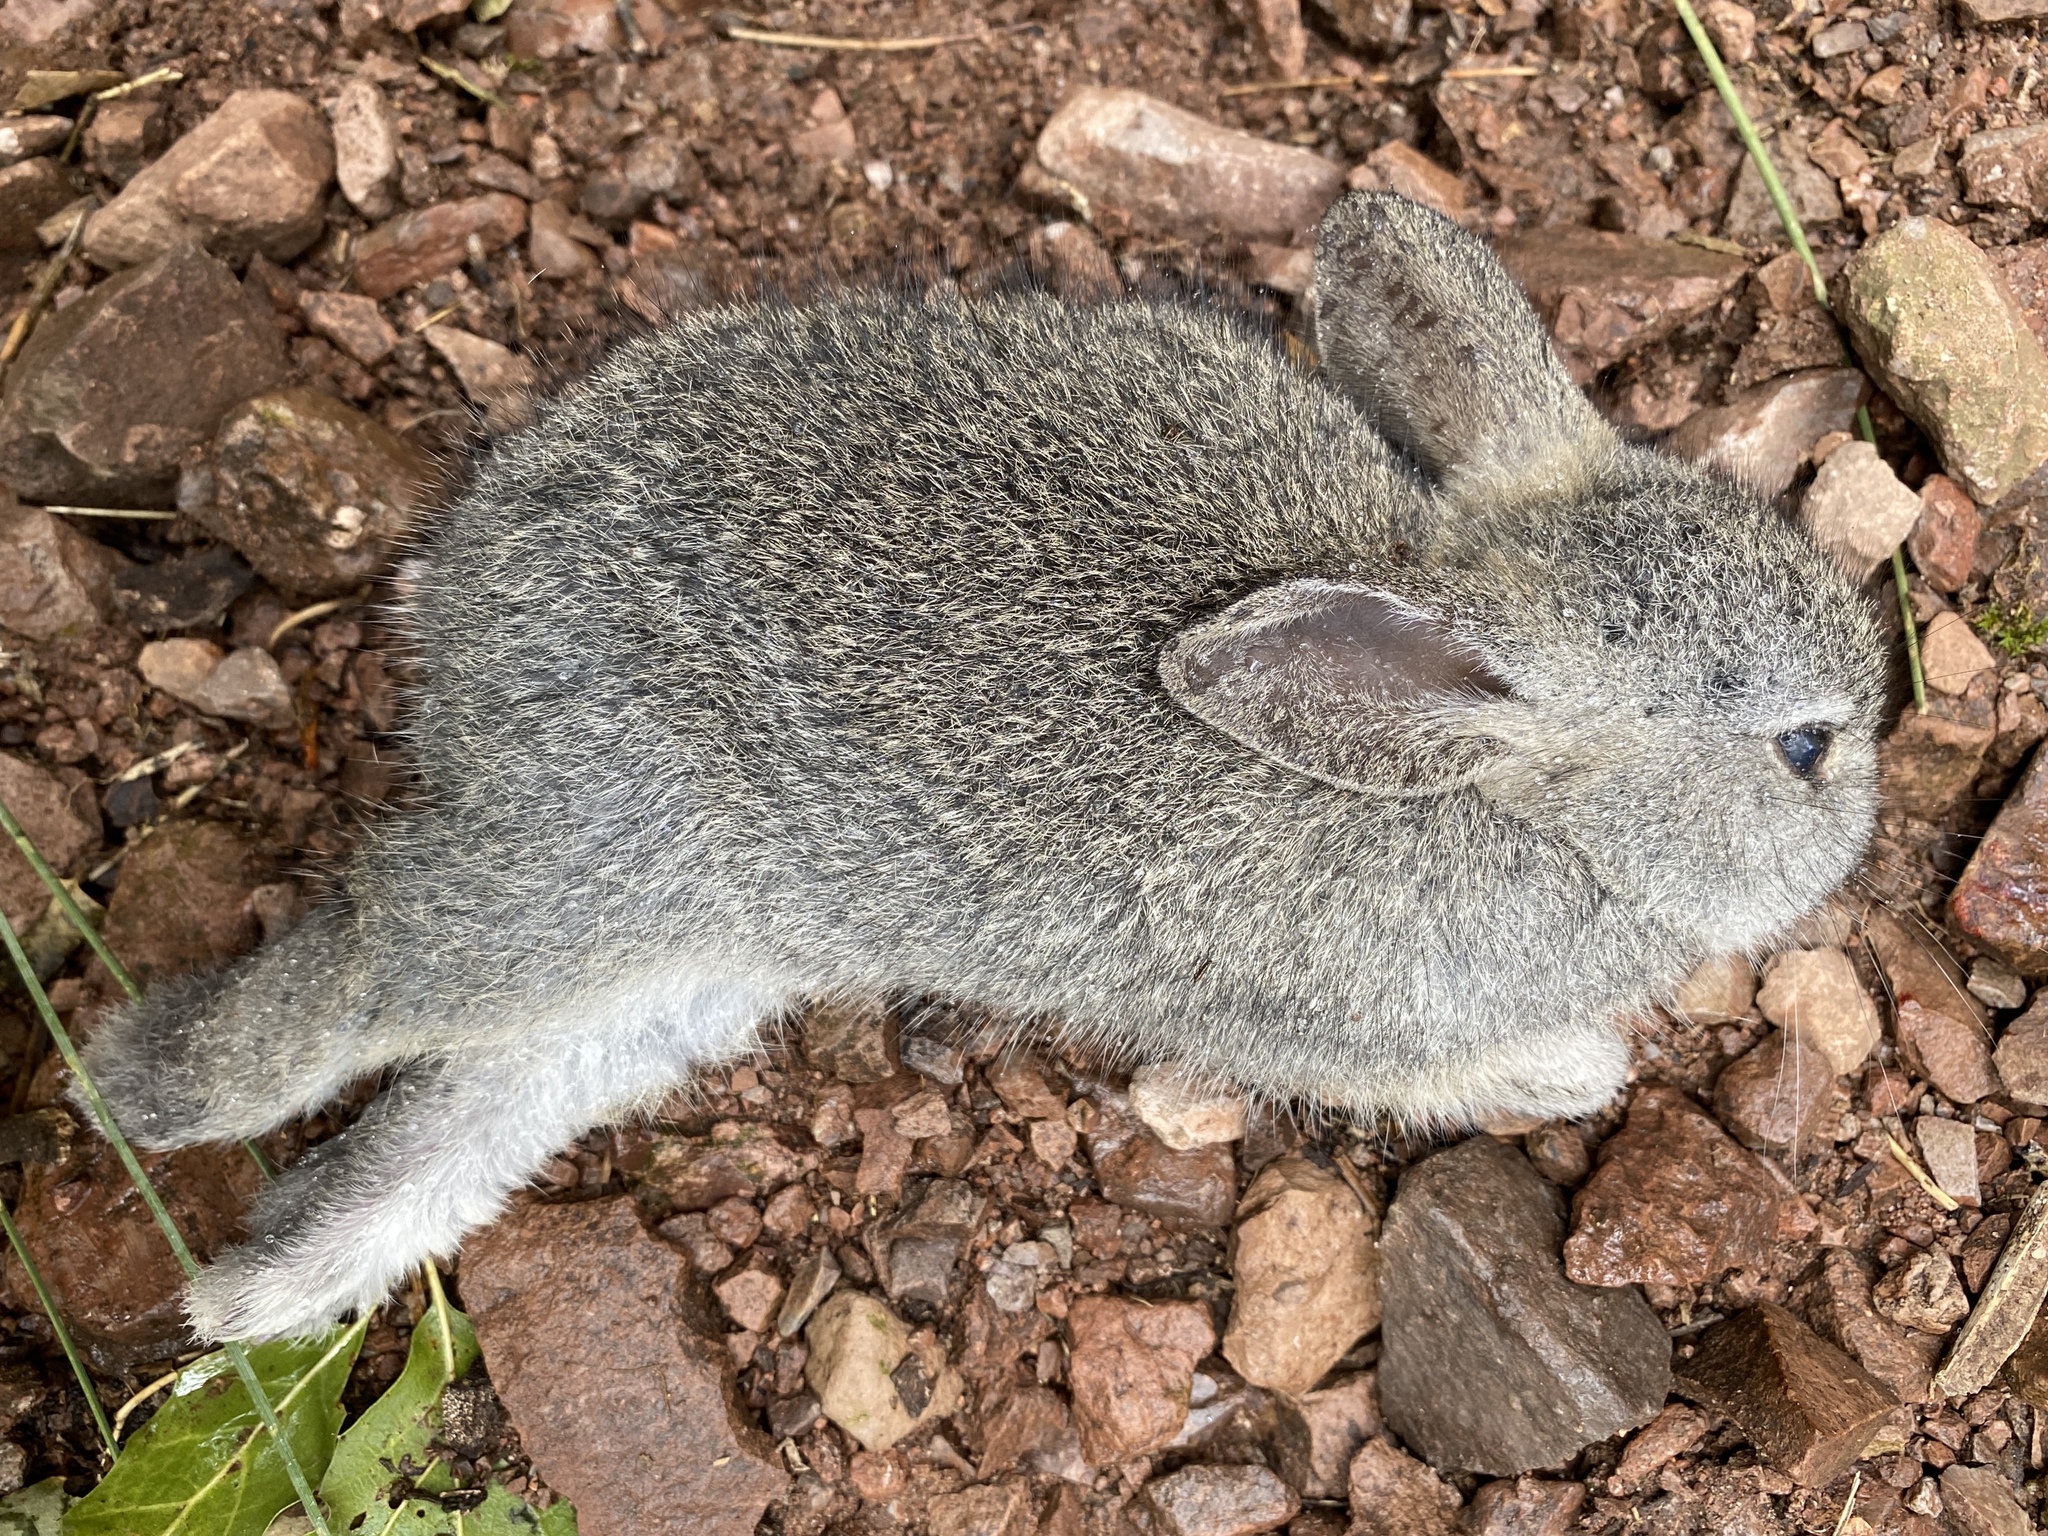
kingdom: Animalia
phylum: Chordata
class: Mammalia
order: Lagomorpha
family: Leporidae
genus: Sylvilagus
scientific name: Sylvilagus bachmani
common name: Brush rabbit
